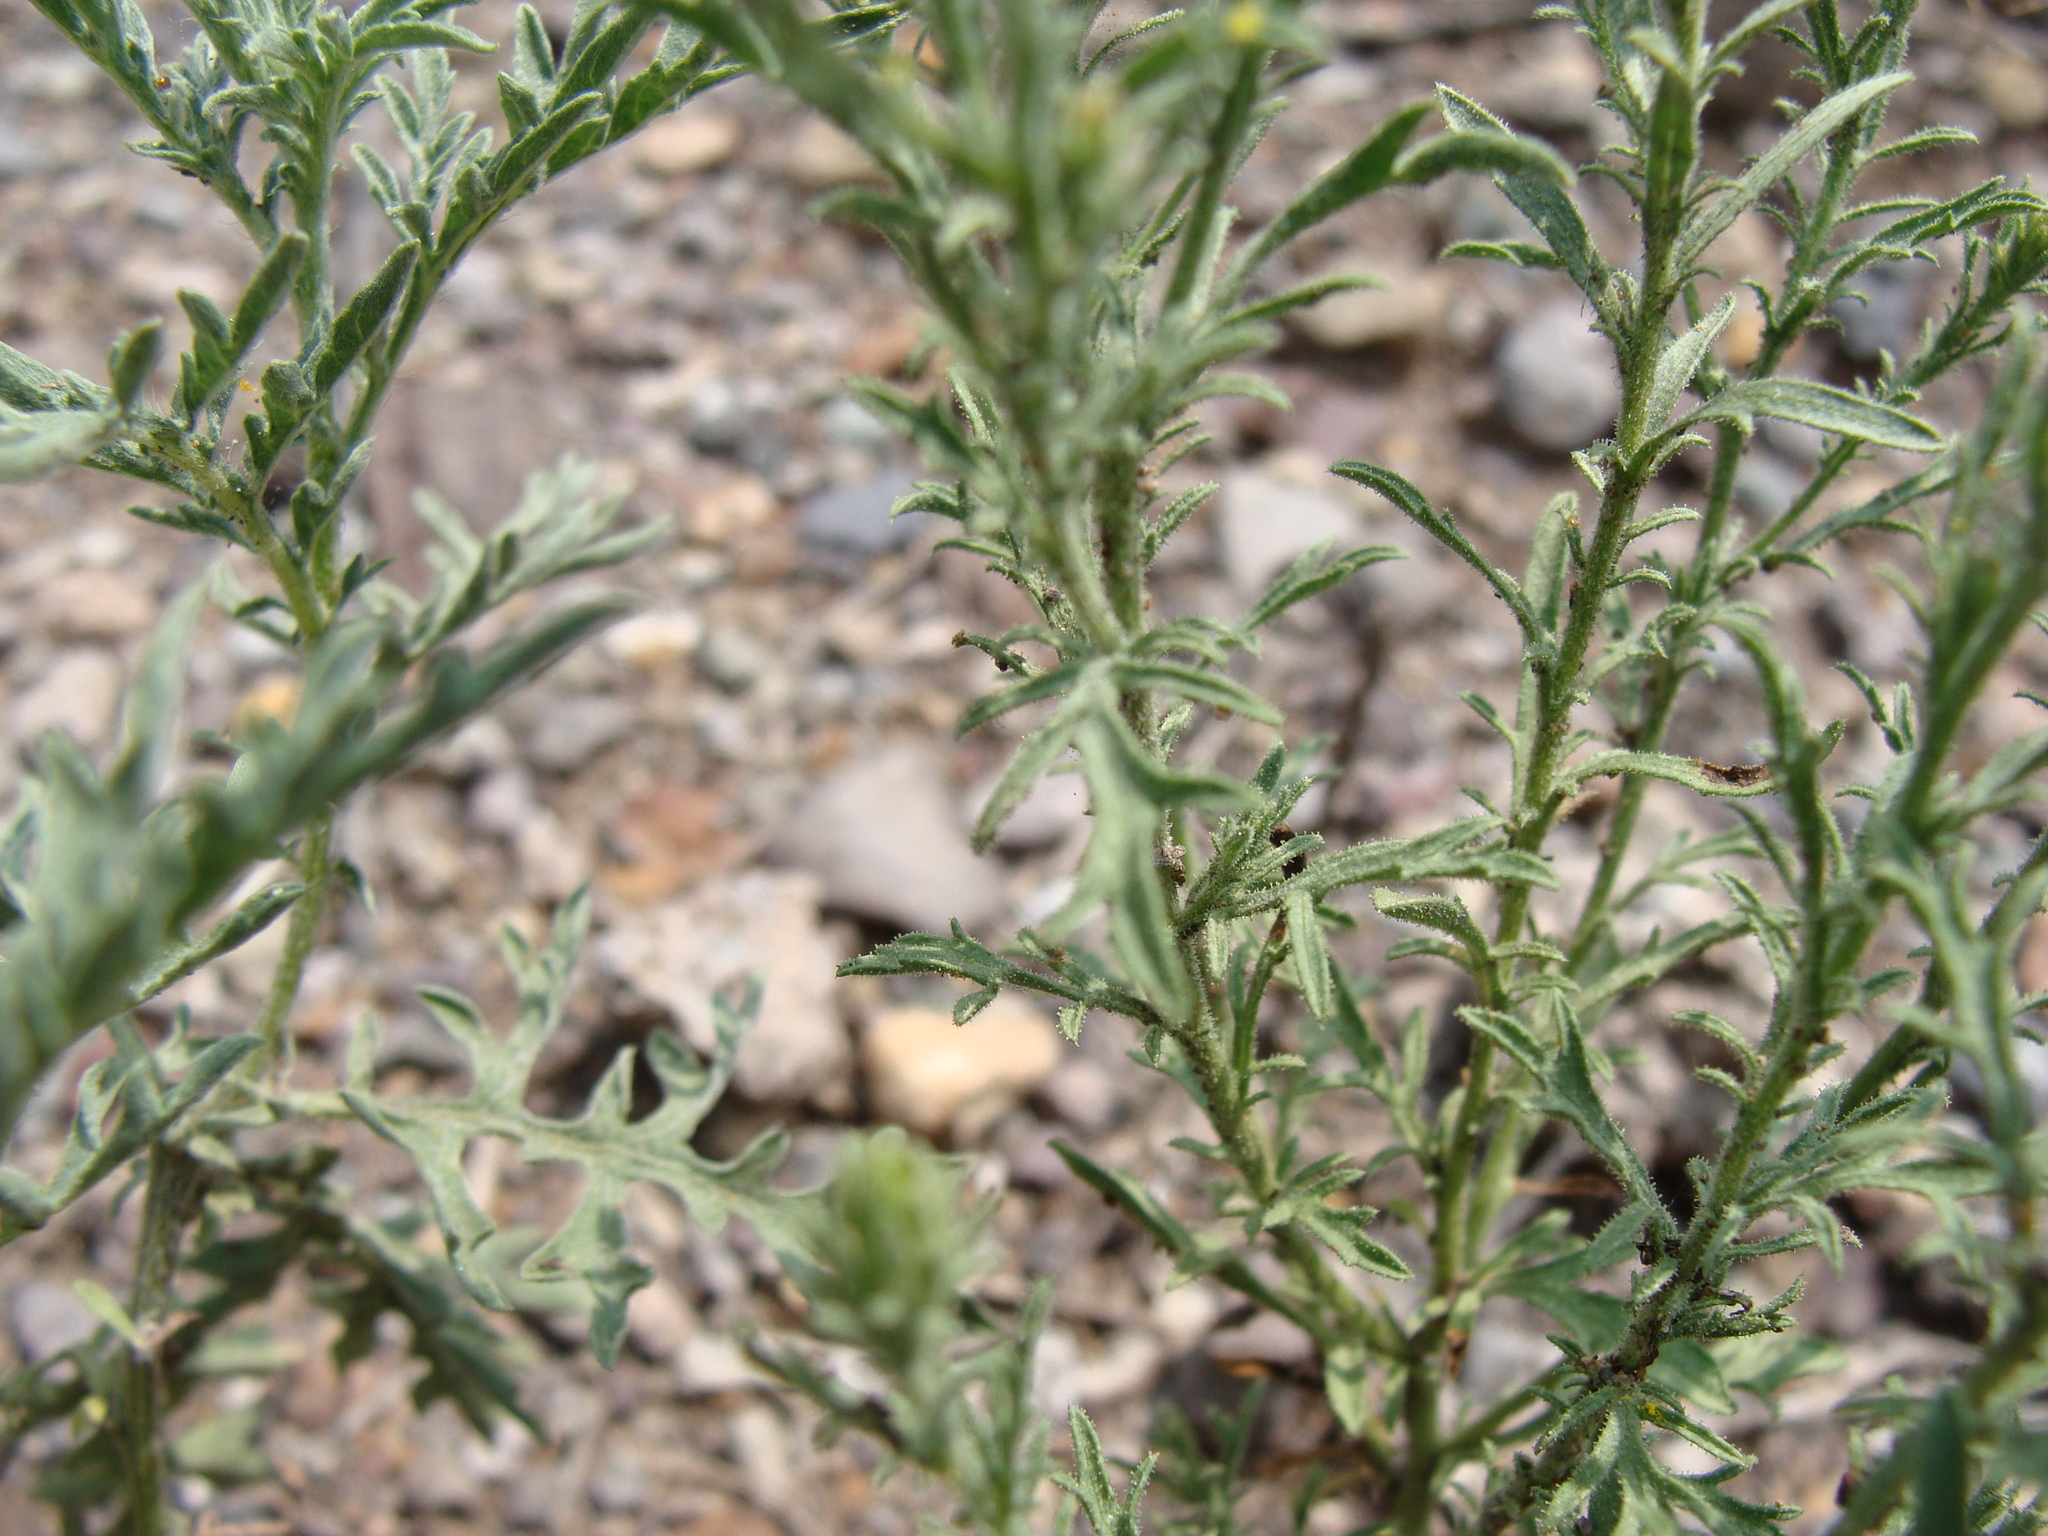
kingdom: Plantae
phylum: Tracheophyta
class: Magnoliopsida
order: Asterales
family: Asteraceae
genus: Machaeranthera
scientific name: Machaeranthera tagetina
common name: Mesa tansy-aster
